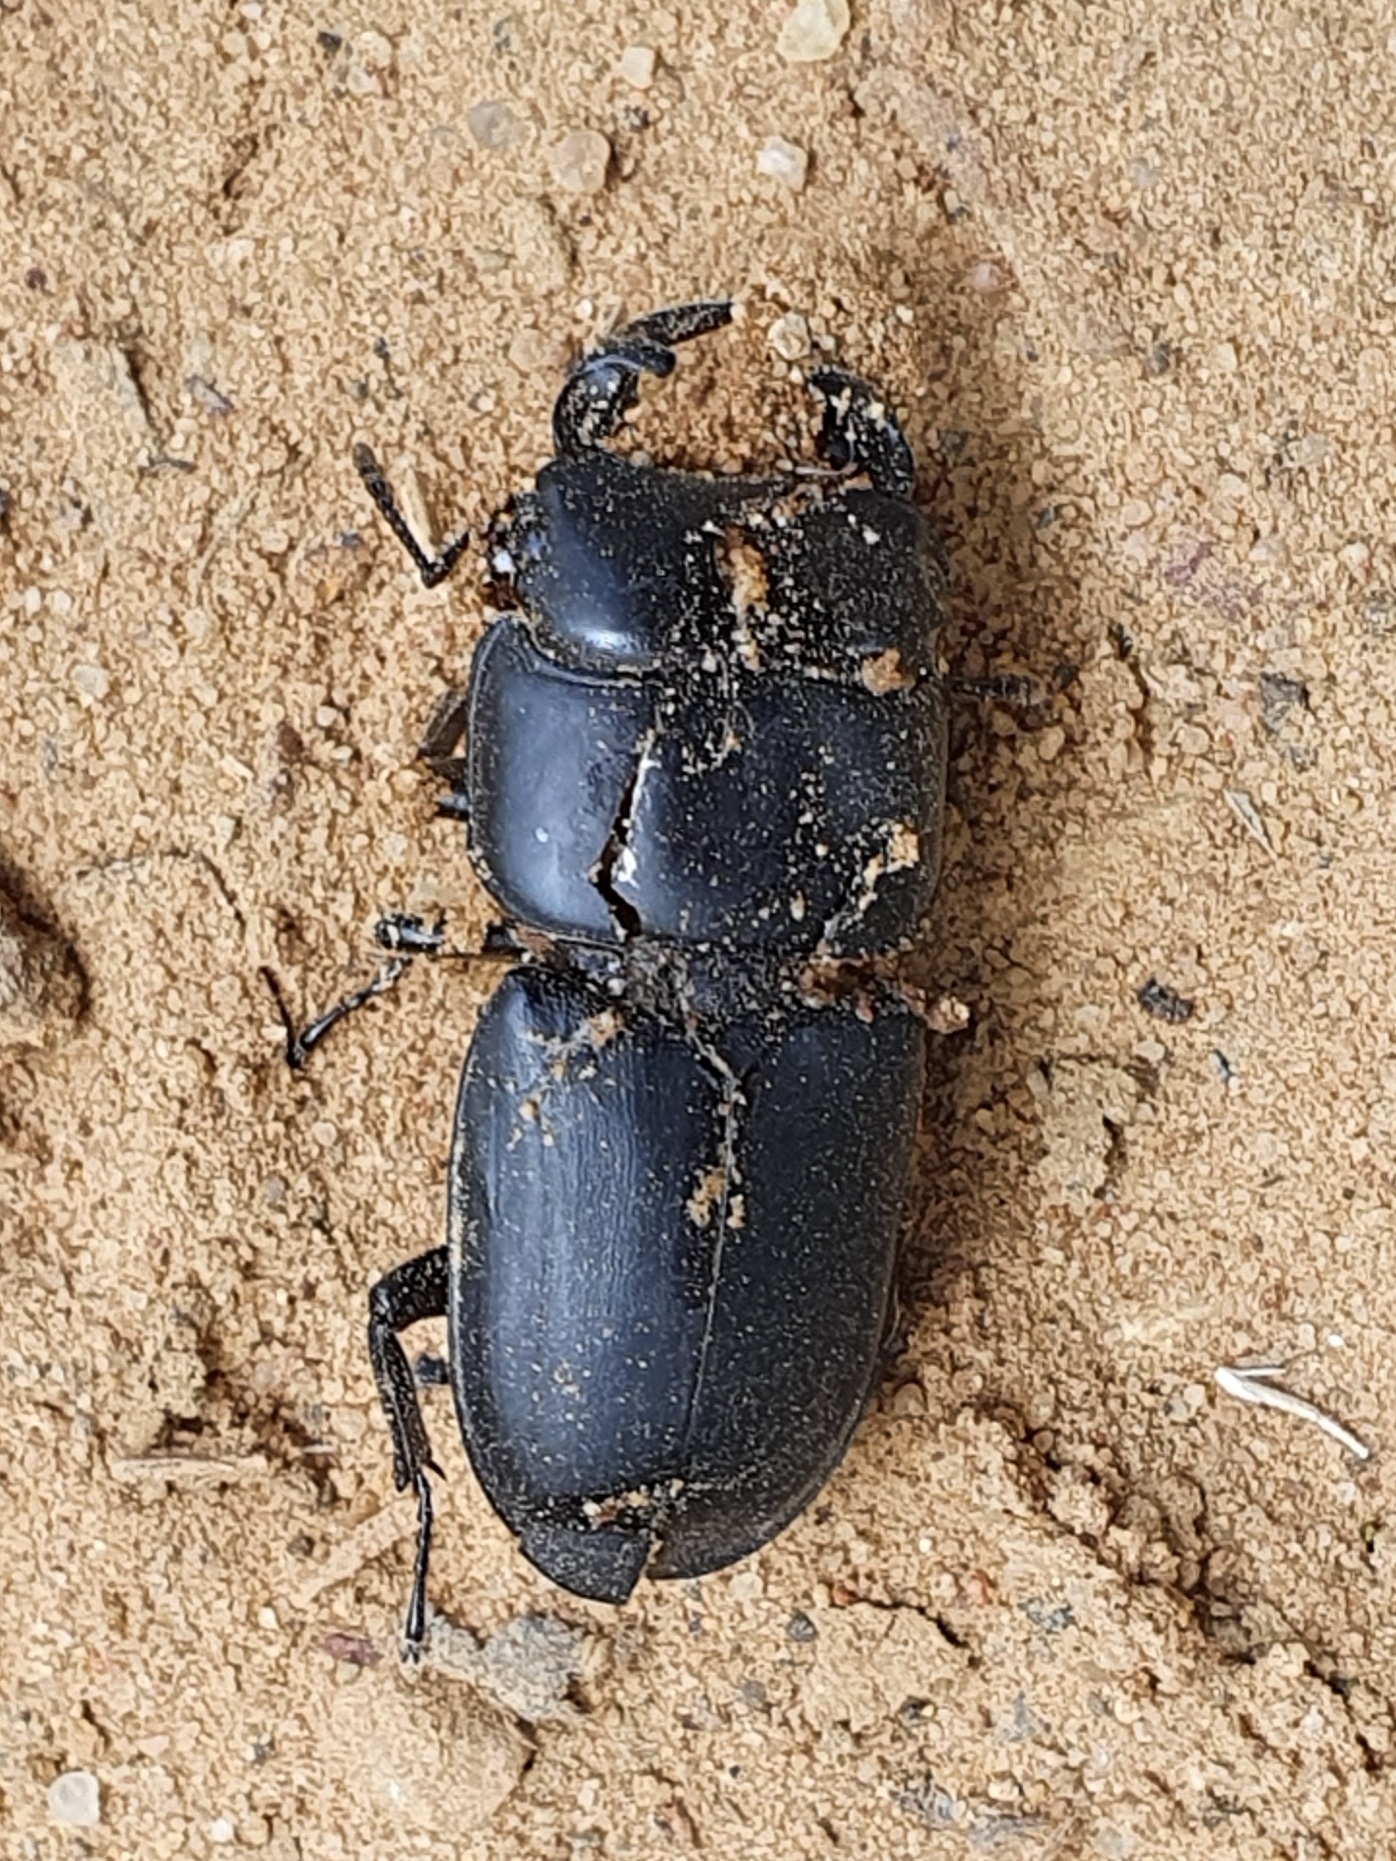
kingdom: Animalia
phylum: Arthropoda
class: Insecta
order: Coleoptera
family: Lucanidae
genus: Dorcus
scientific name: Dorcus musimon
